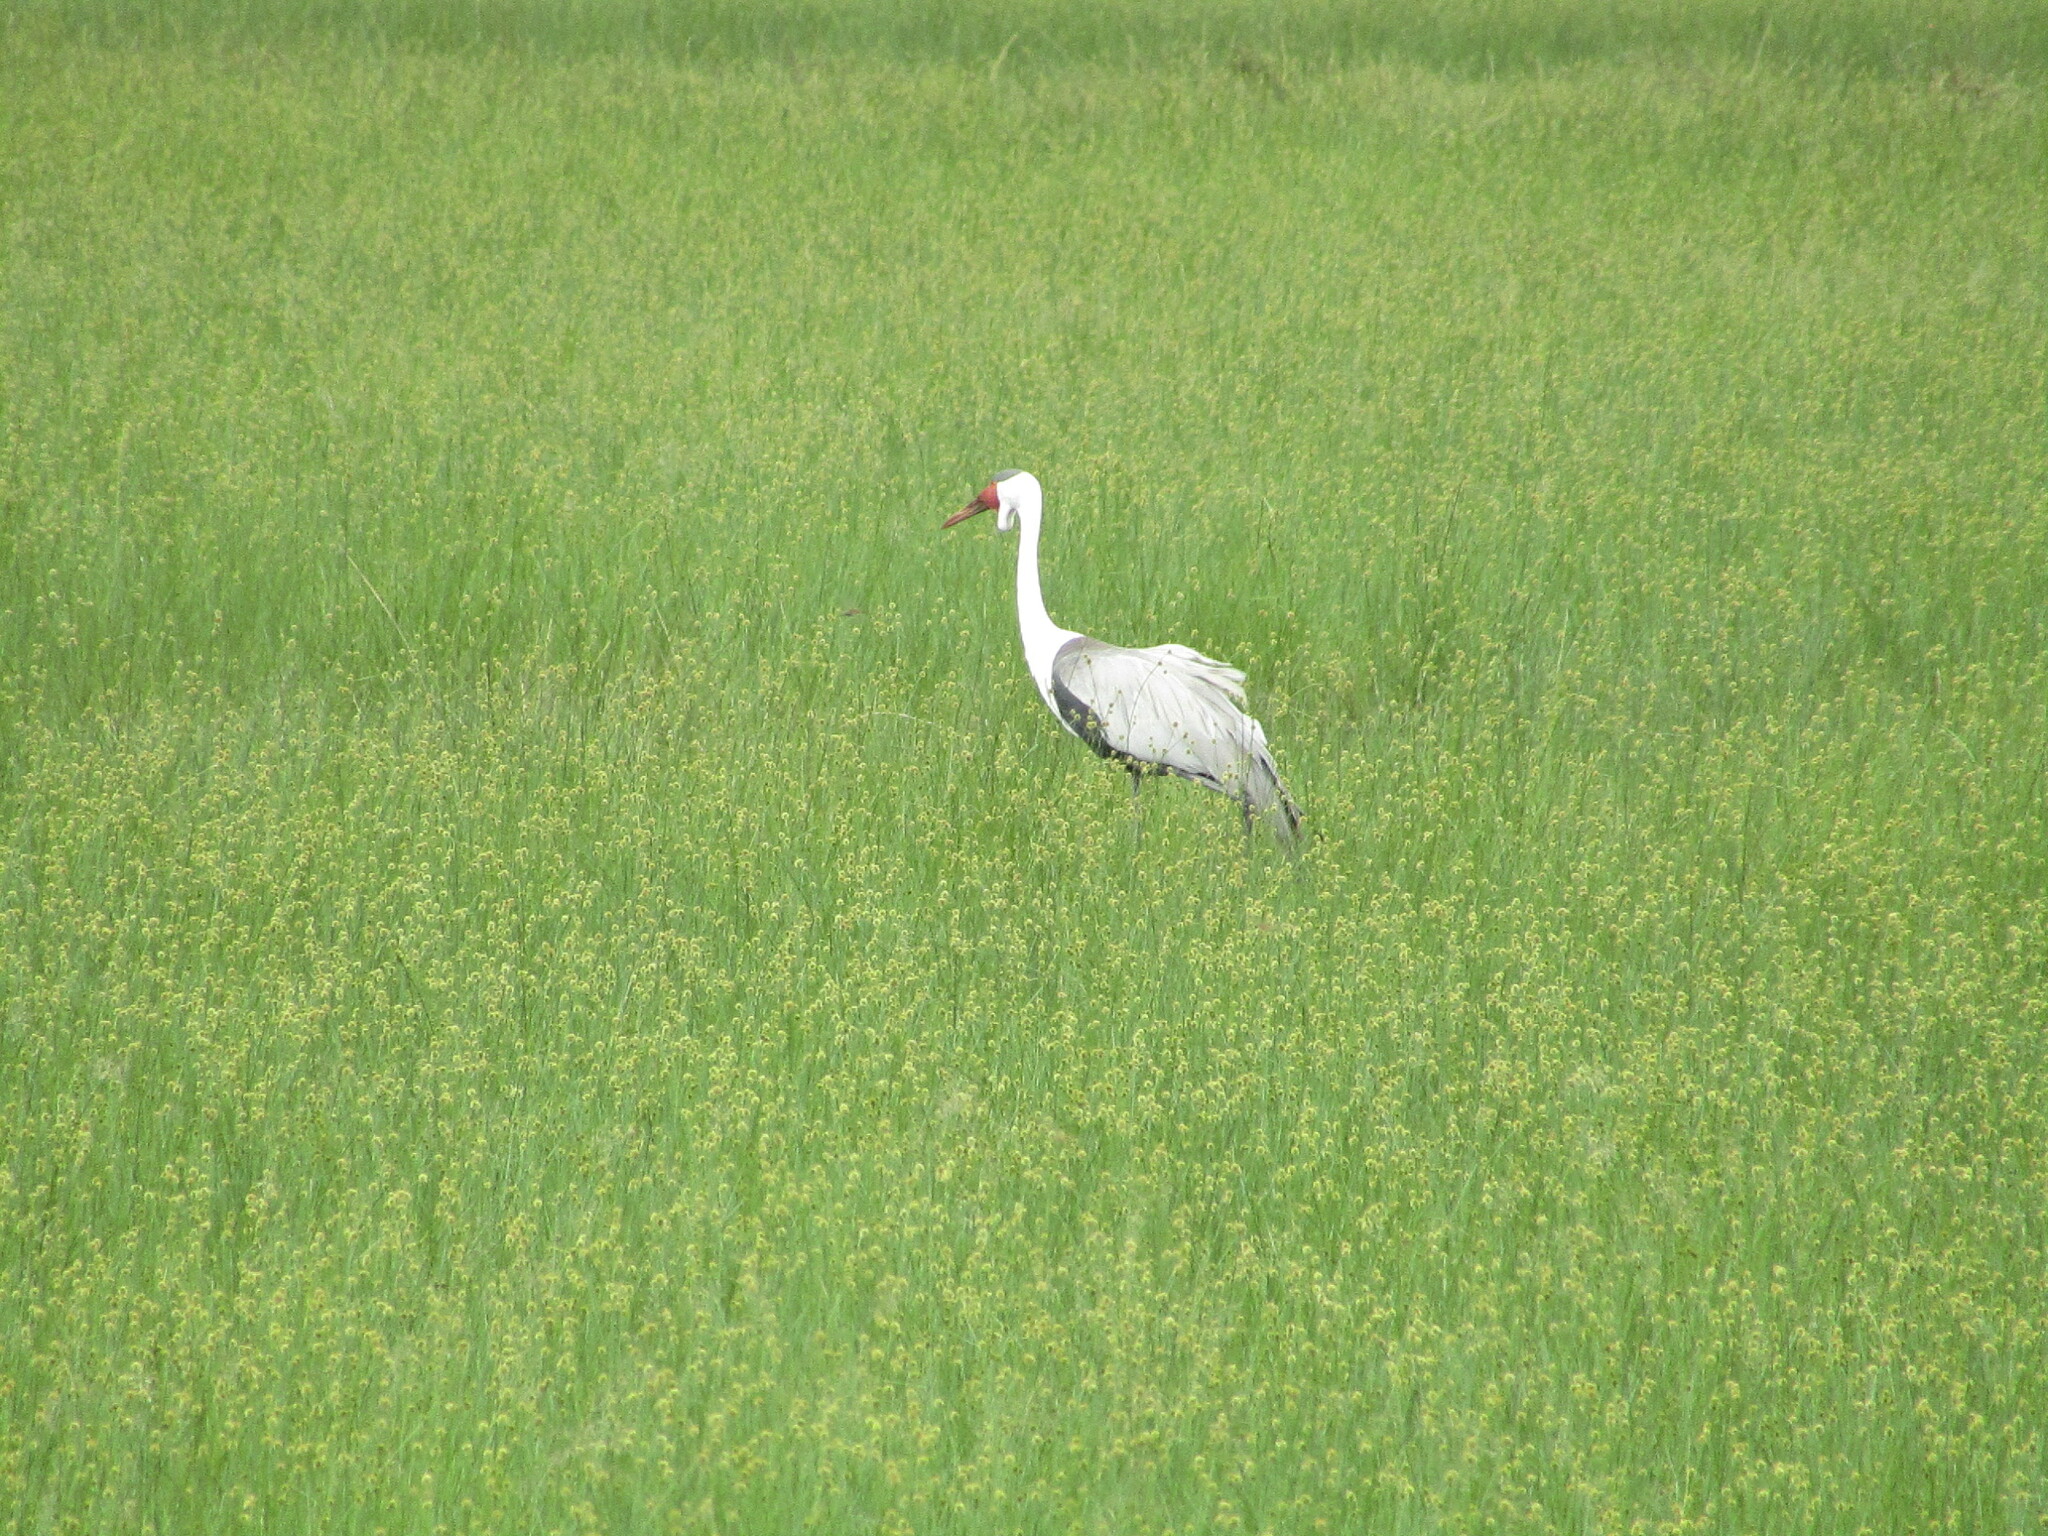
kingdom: Animalia
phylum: Chordata
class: Aves
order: Gruiformes
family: Gruidae
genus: Bugeranus
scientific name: Bugeranus carunculatus
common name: Wattled crane
